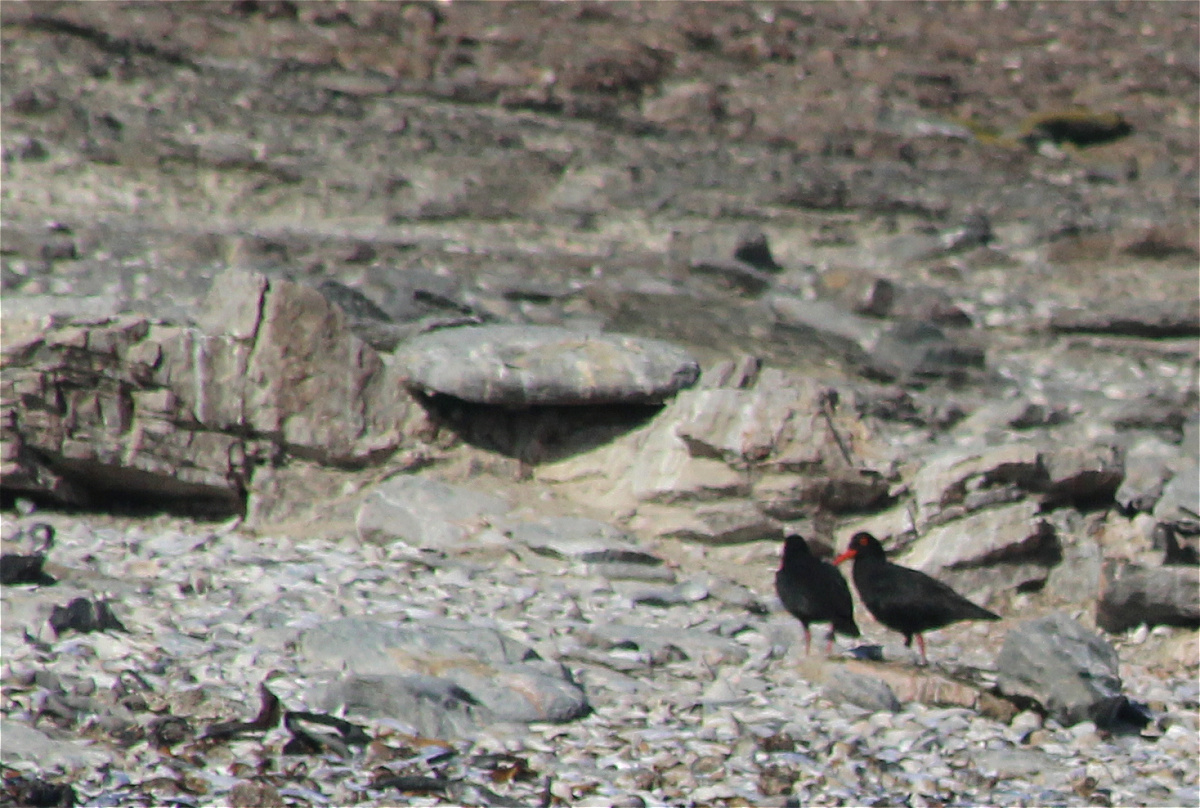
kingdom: Animalia
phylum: Chordata
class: Aves
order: Charadriiformes
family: Haematopodidae
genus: Haematopus
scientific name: Haematopus moquini
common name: African oystercatcher
